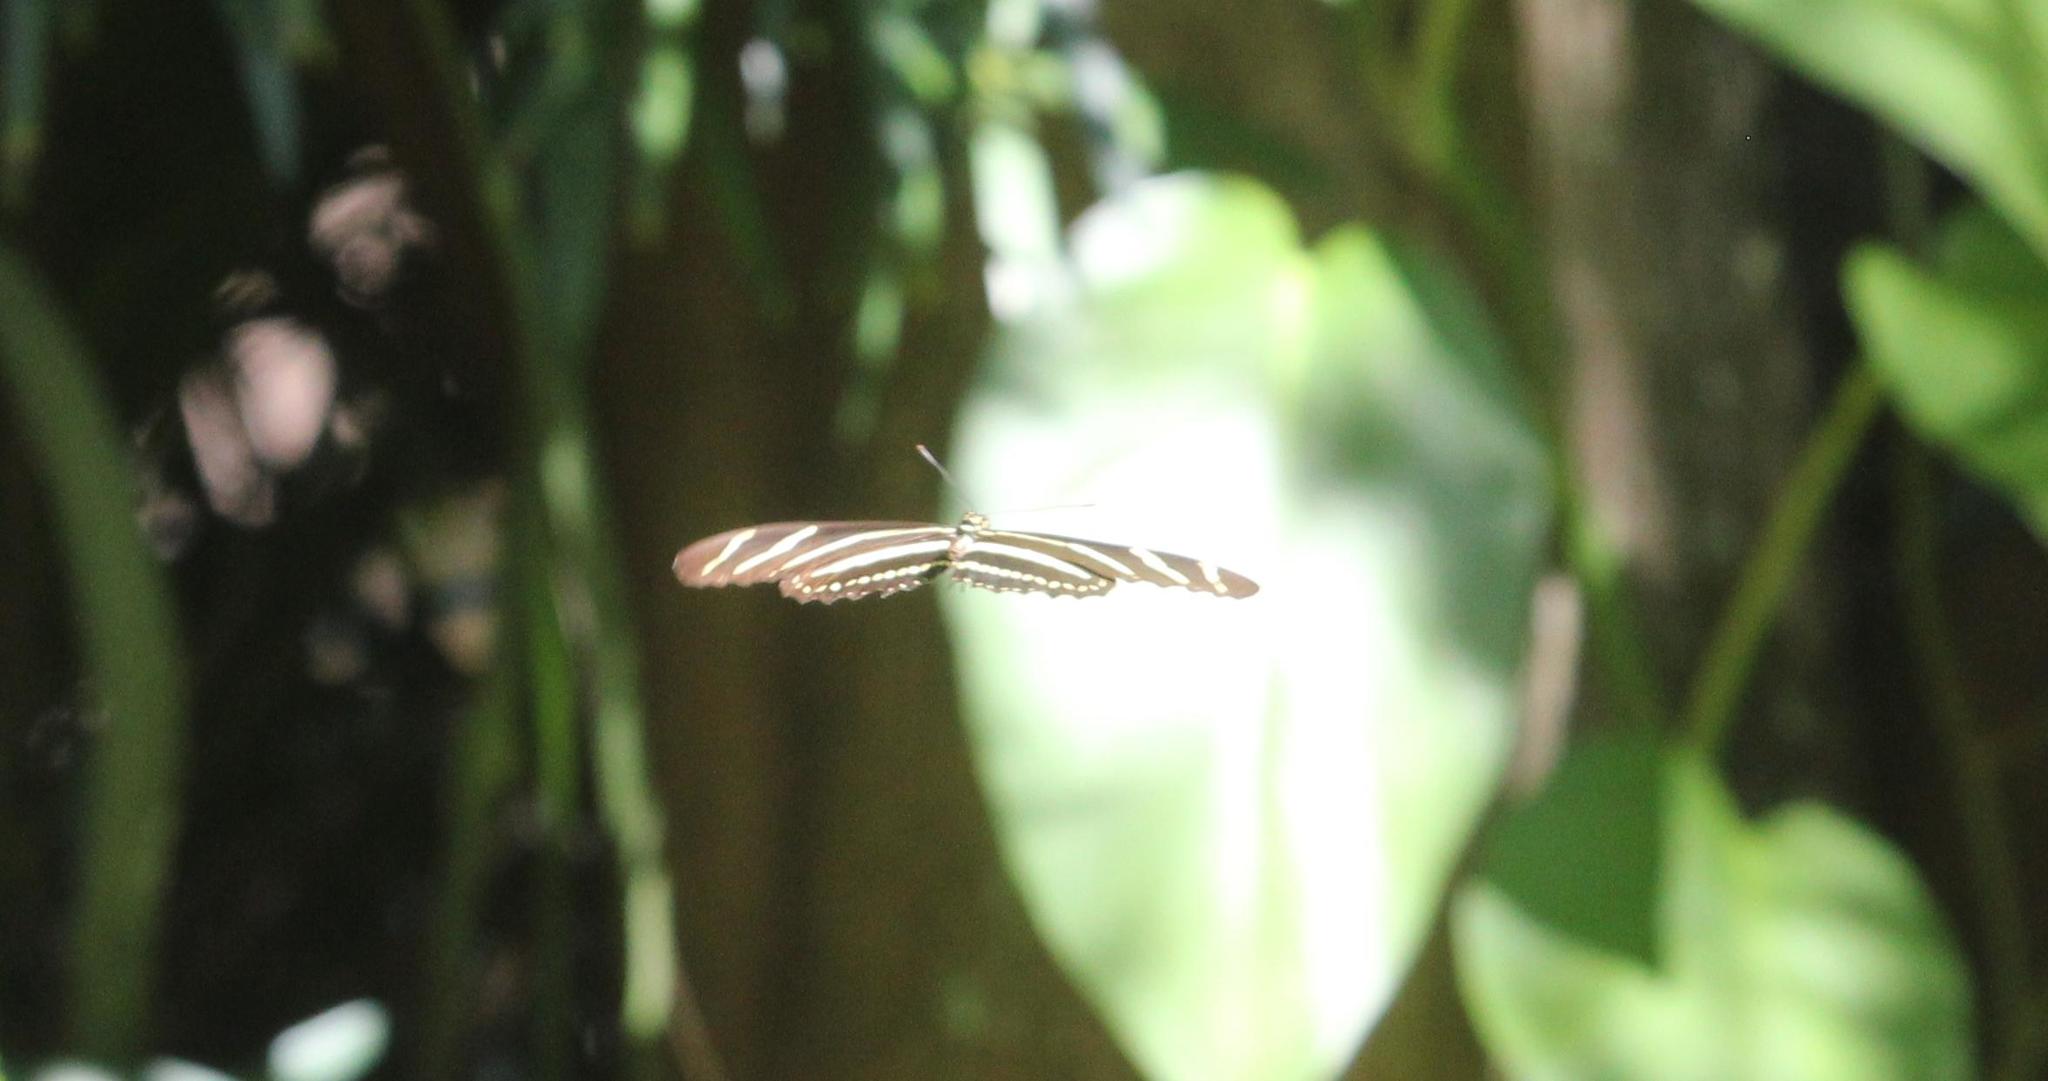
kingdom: Animalia
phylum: Arthropoda
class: Insecta
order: Lepidoptera
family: Nymphalidae
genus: Heliconius
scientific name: Heliconius charithonia
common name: Zebra long wing
